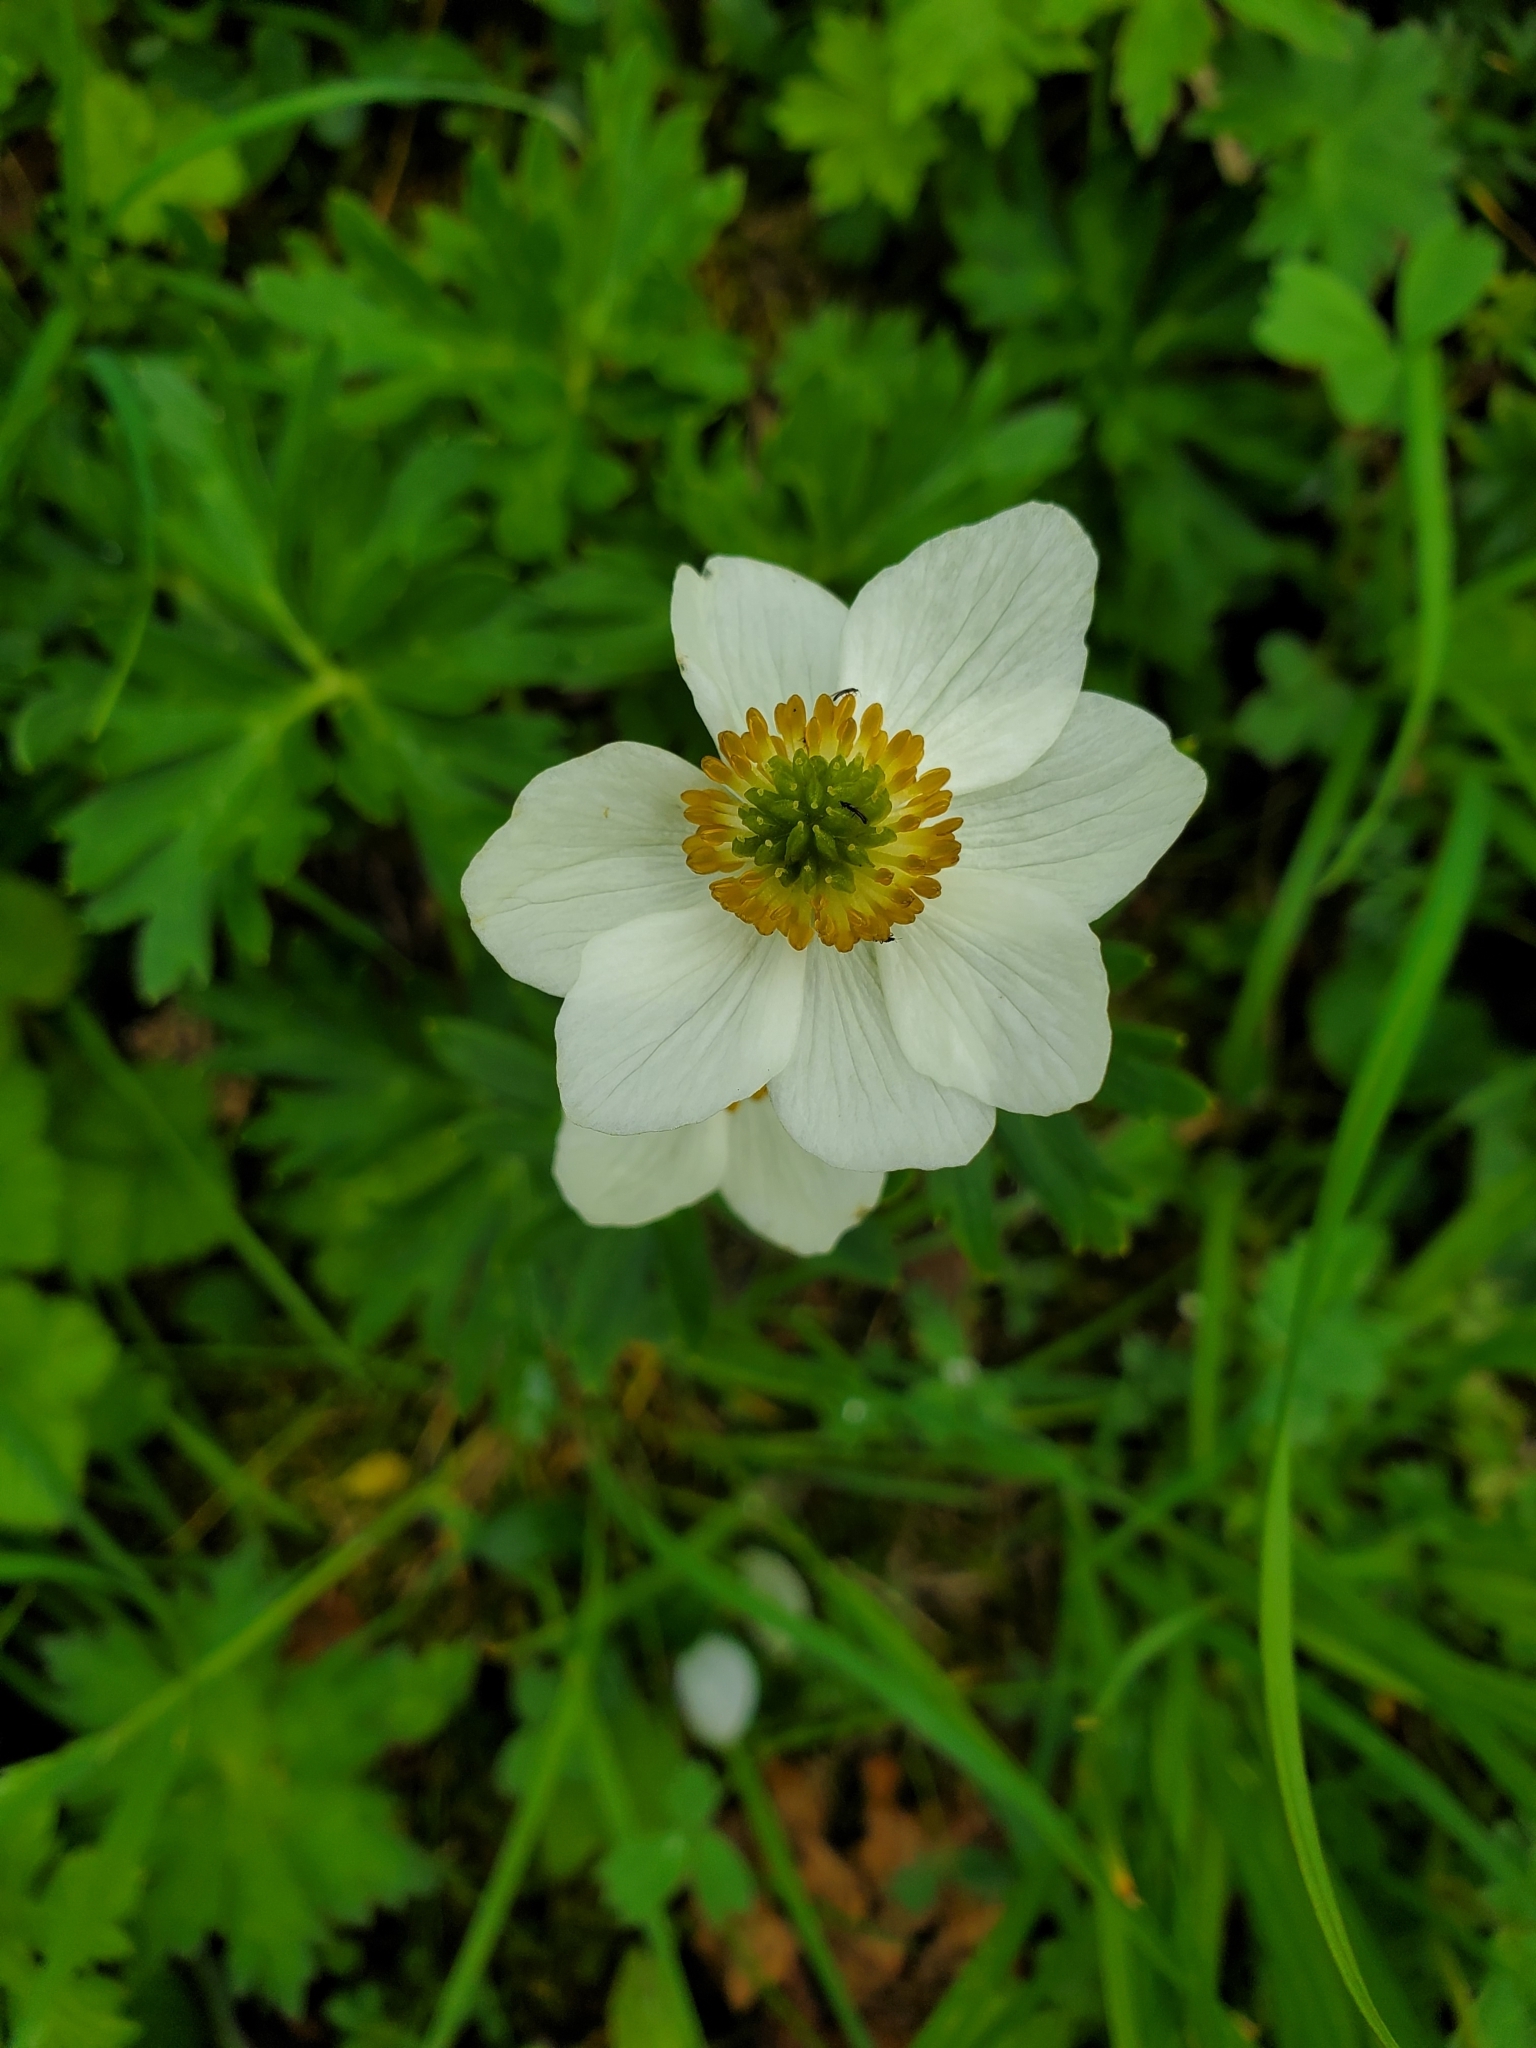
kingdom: Plantae
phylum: Tracheophyta
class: Magnoliopsida
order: Ranunculales
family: Ranunculaceae
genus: Anemonastrum
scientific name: Anemonastrum narcissiflorum
